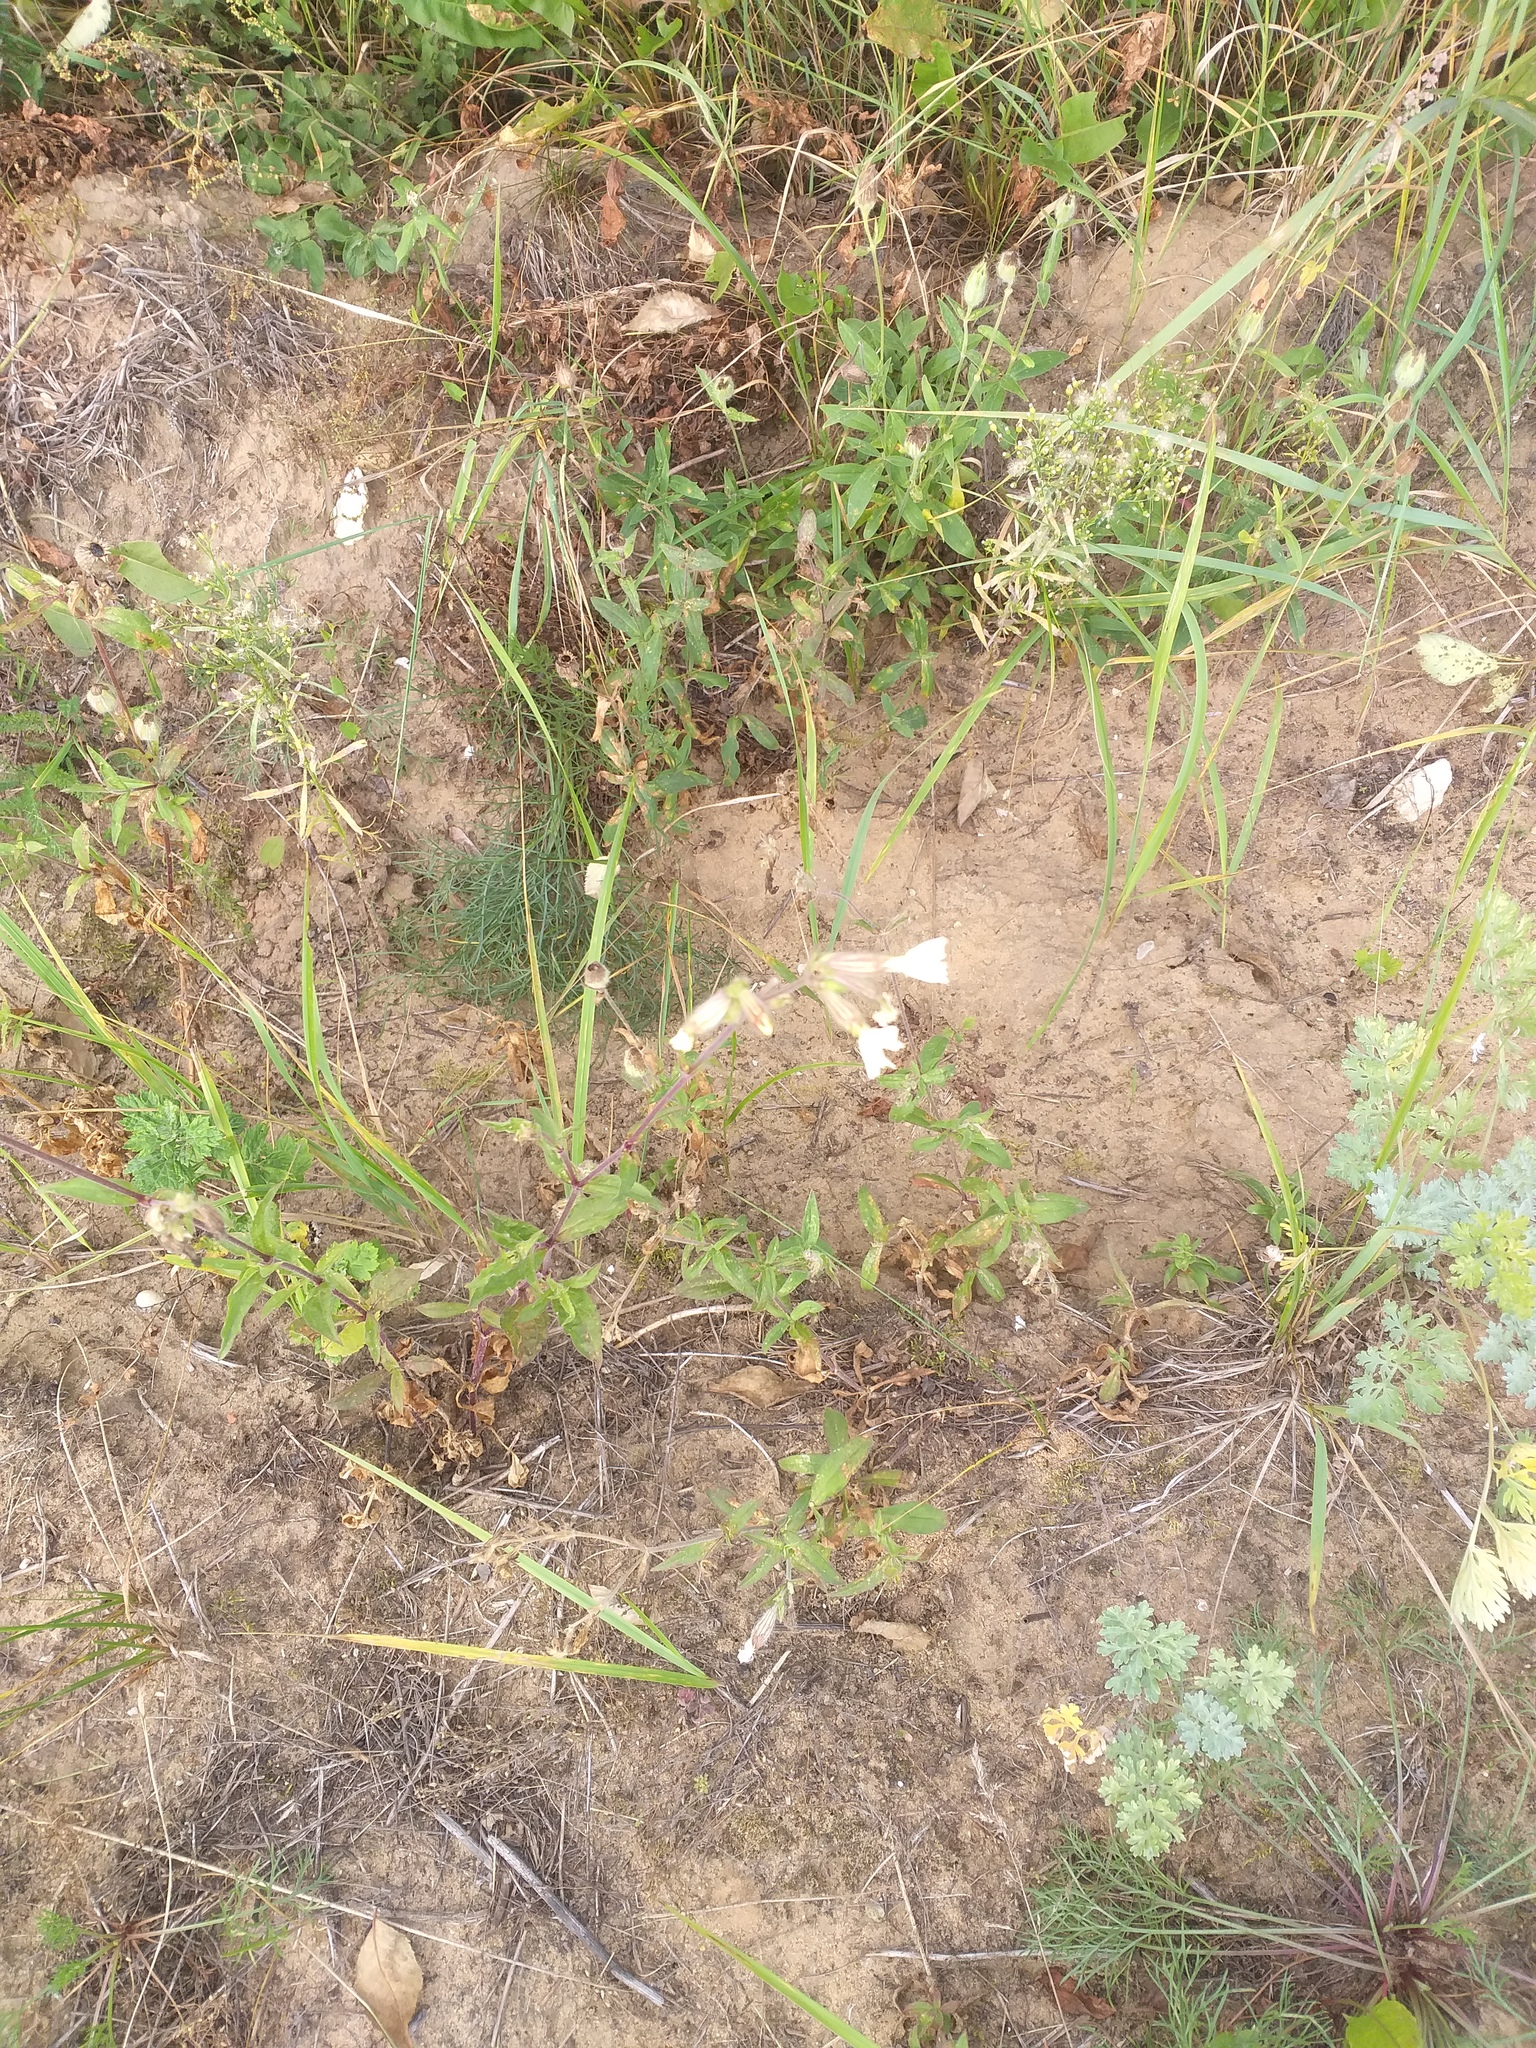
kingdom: Plantae
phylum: Tracheophyta
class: Magnoliopsida
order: Caryophyllales
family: Caryophyllaceae
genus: Silene
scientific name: Silene latifolia
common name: White campion
